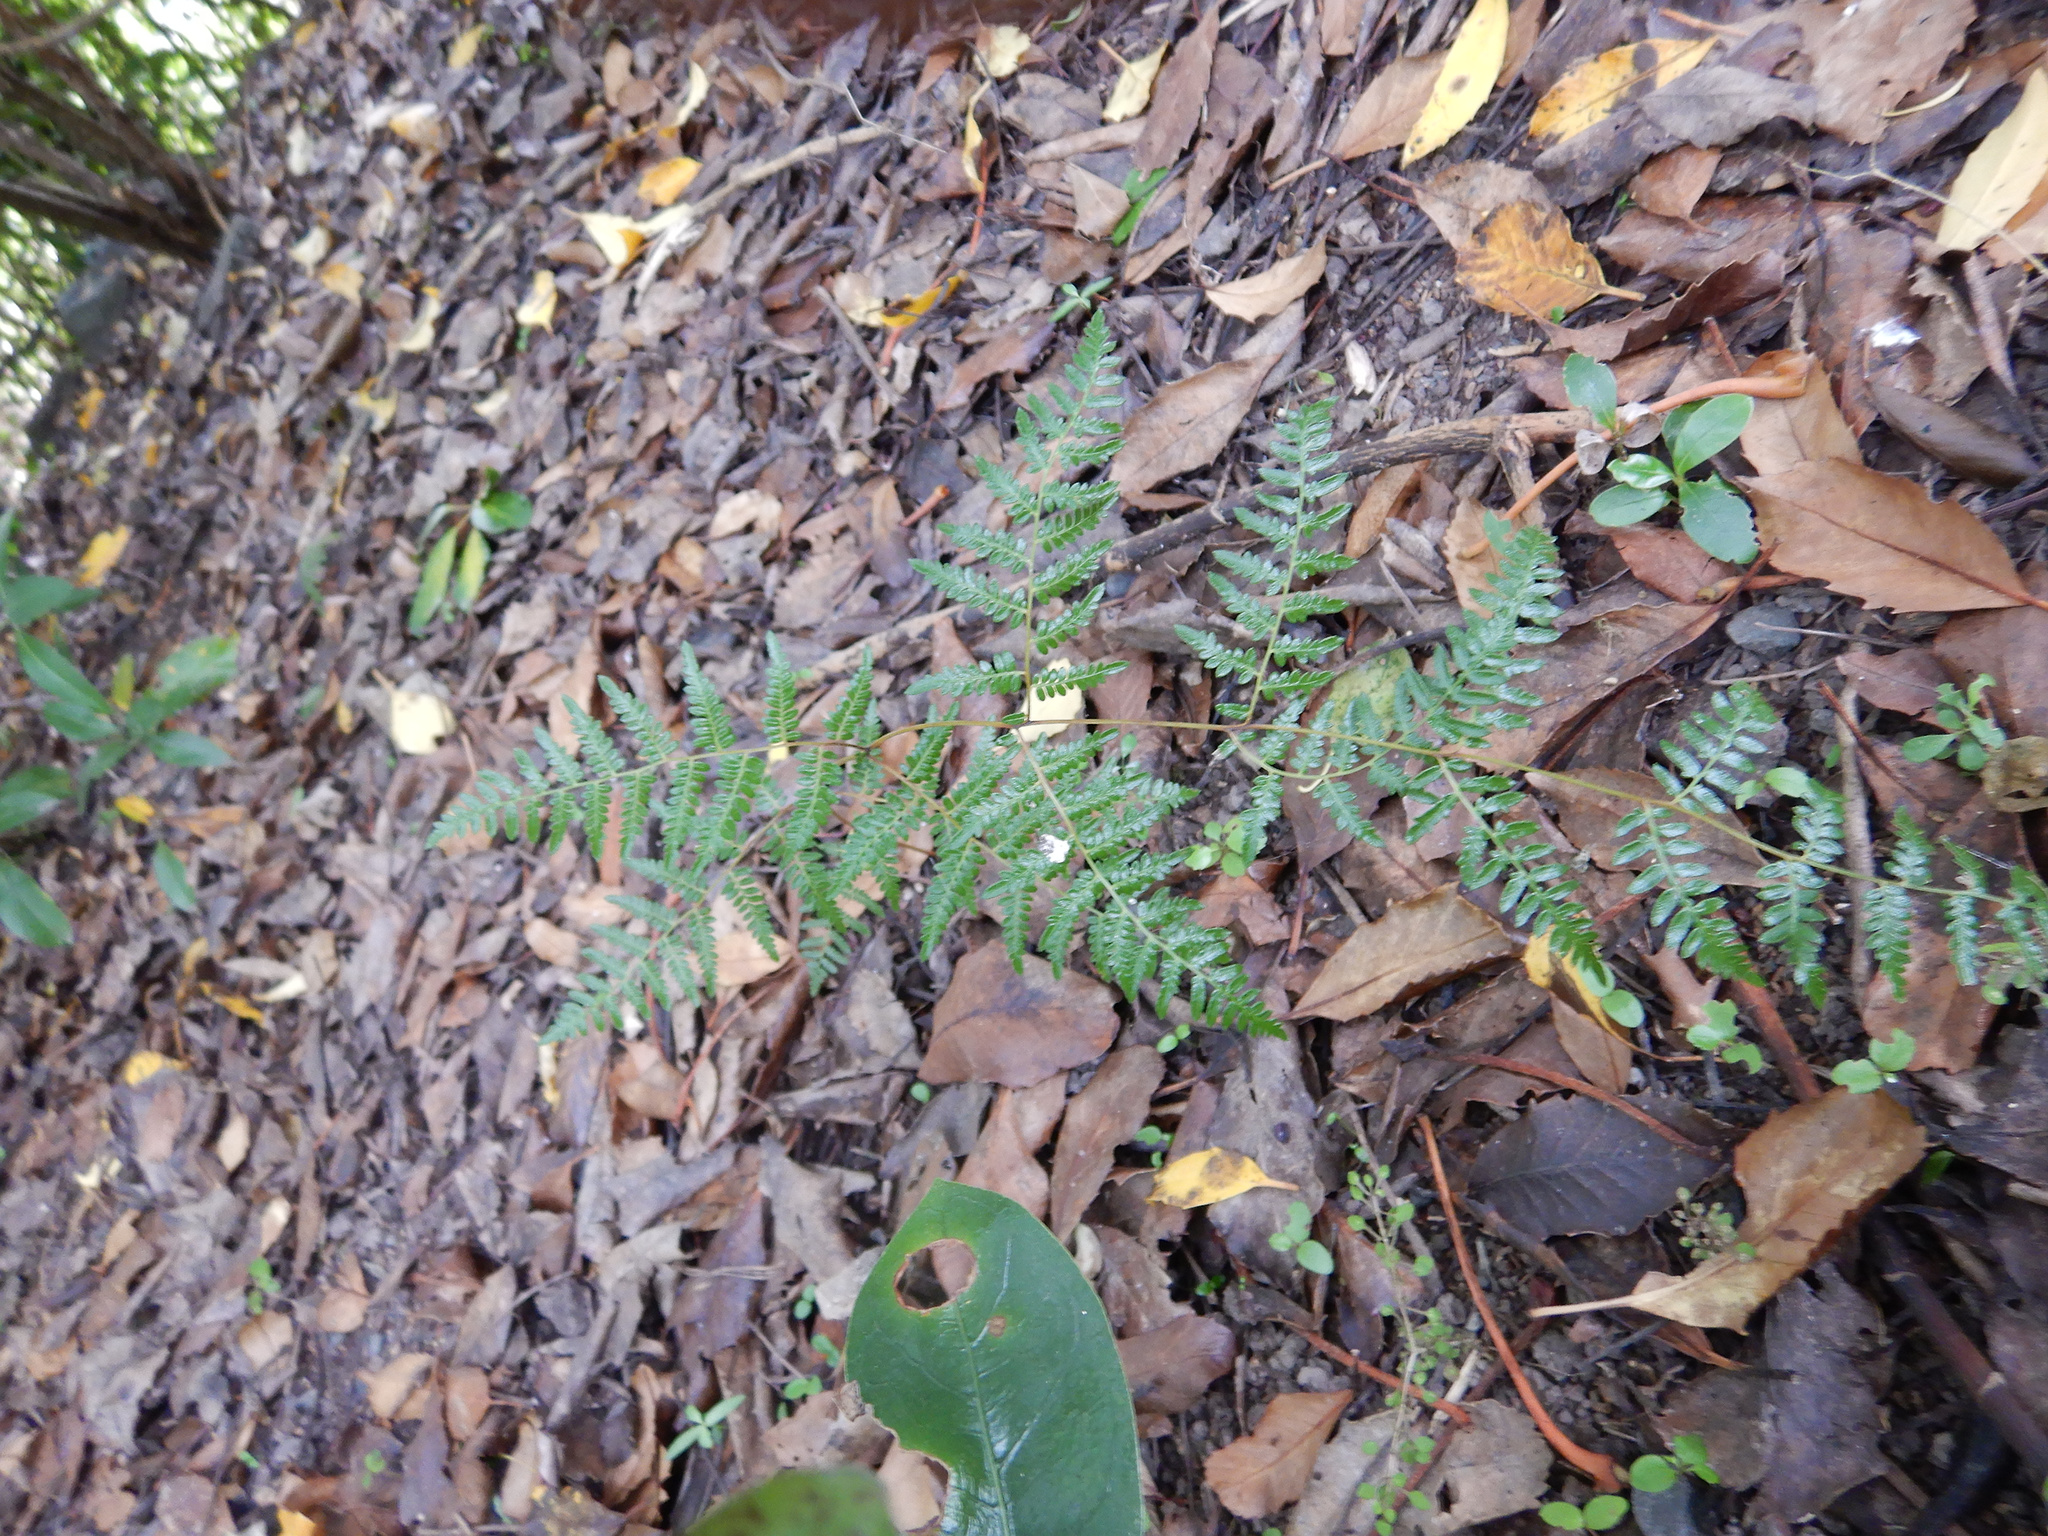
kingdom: Plantae
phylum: Tracheophyta
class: Polypodiopsida
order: Polypodiales
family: Dennstaedtiaceae
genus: Pteridium
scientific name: Pteridium esculentum
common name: Bracken fern
